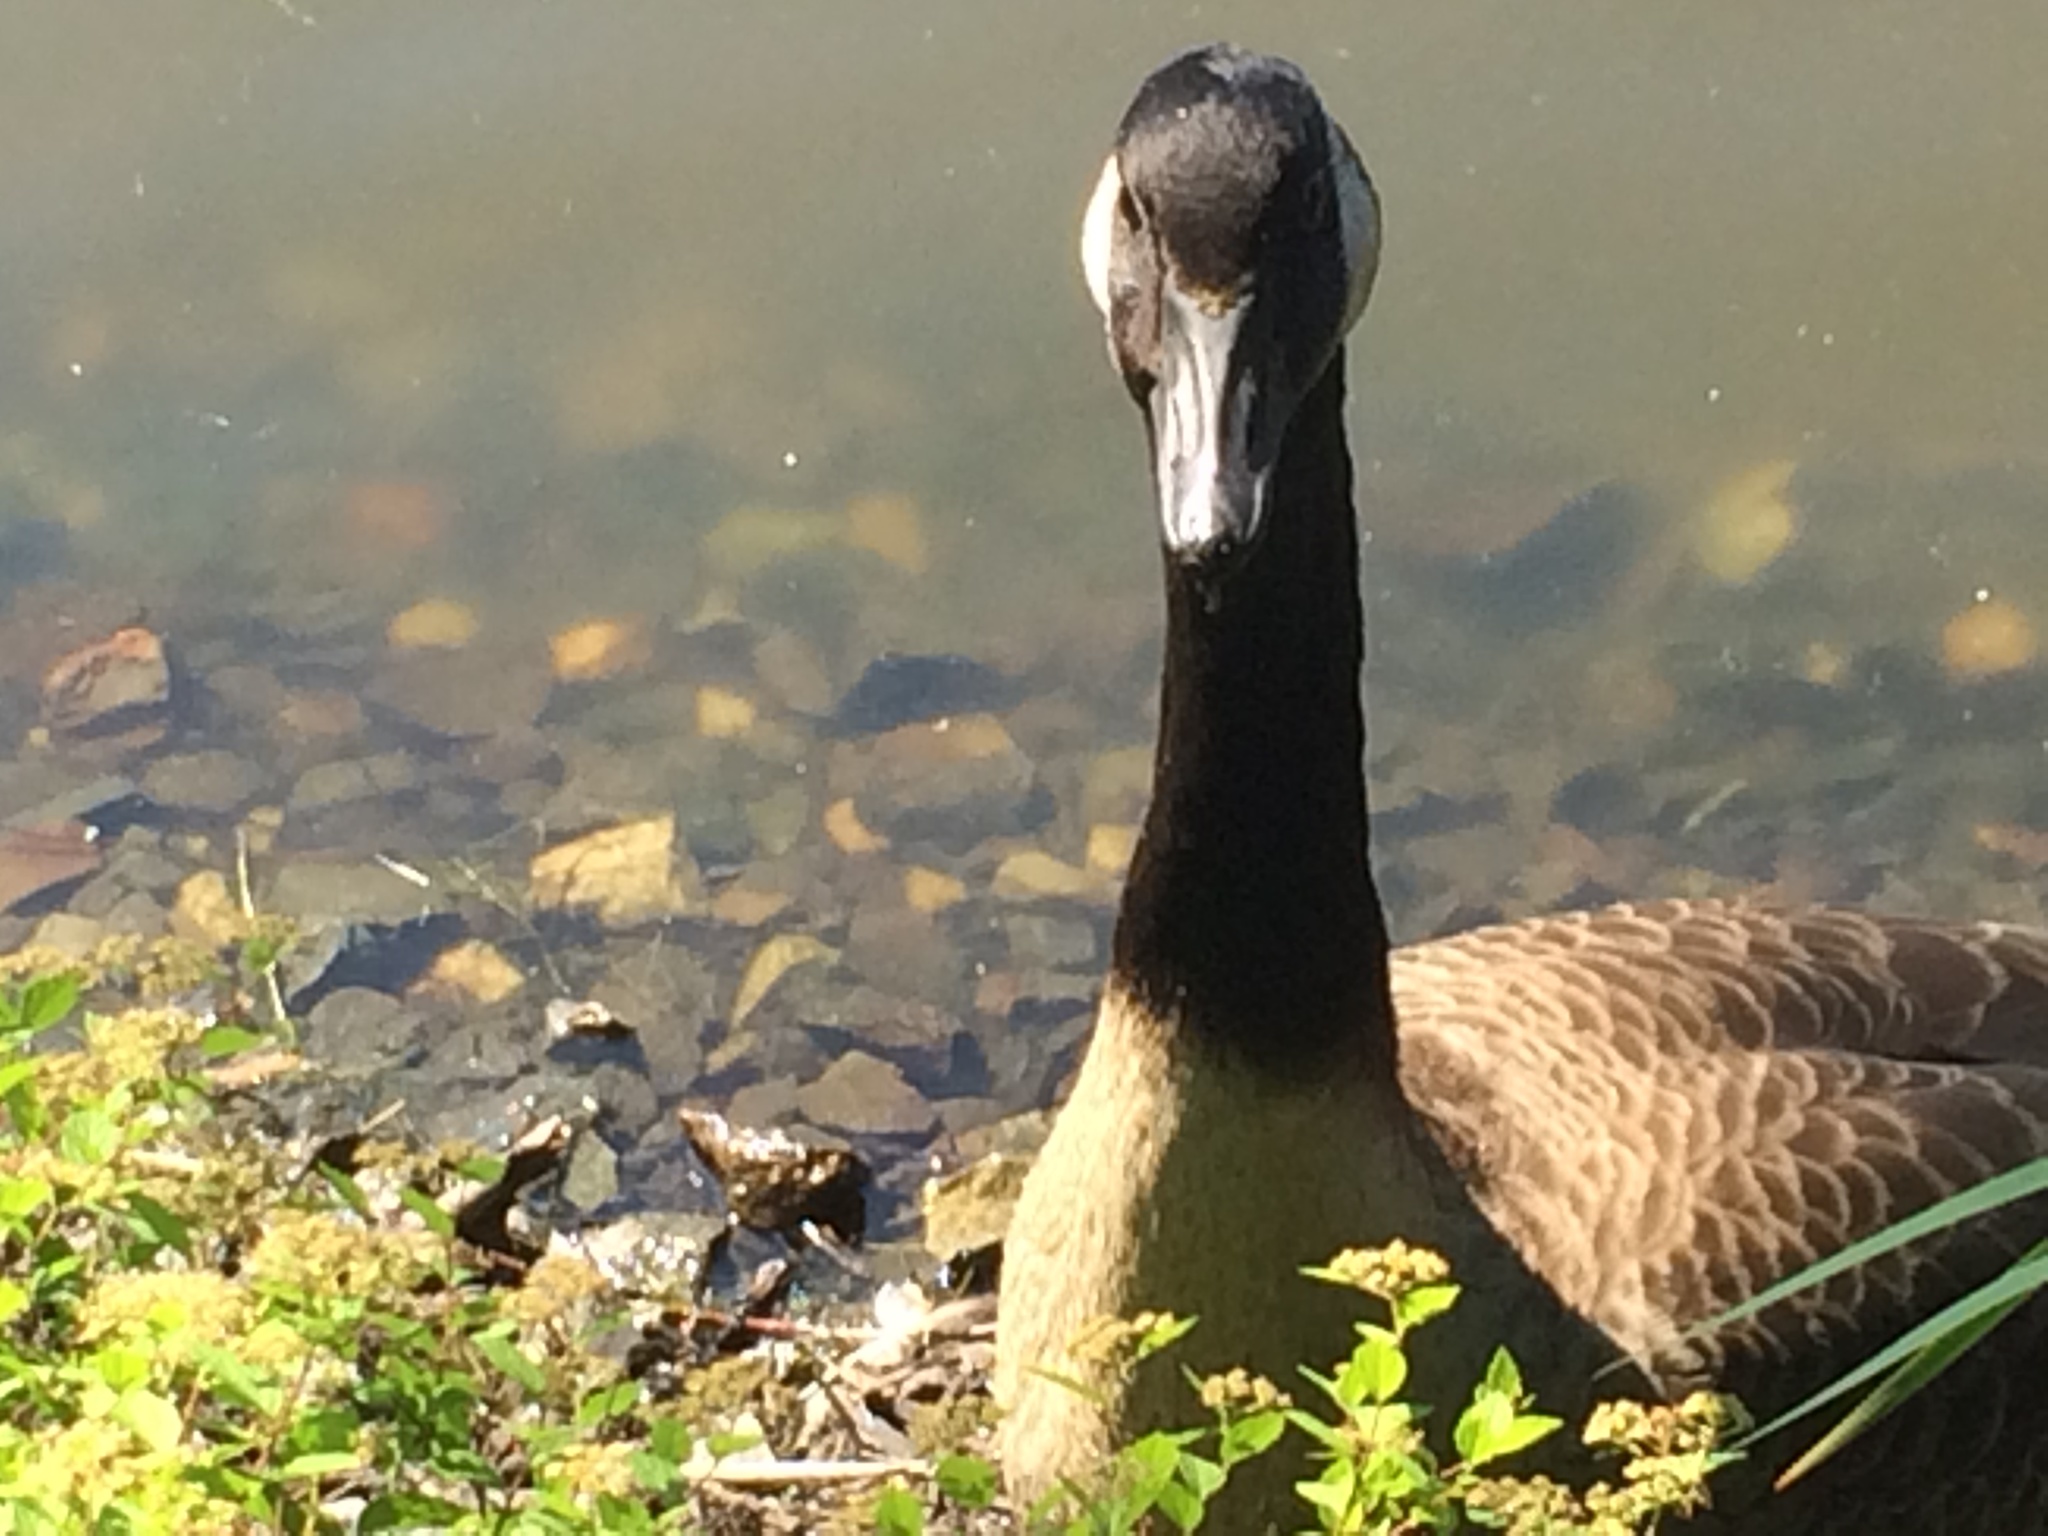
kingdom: Animalia
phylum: Chordata
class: Aves
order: Anseriformes
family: Anatidae
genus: Branta
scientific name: Branta canadensis
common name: Canada goose
